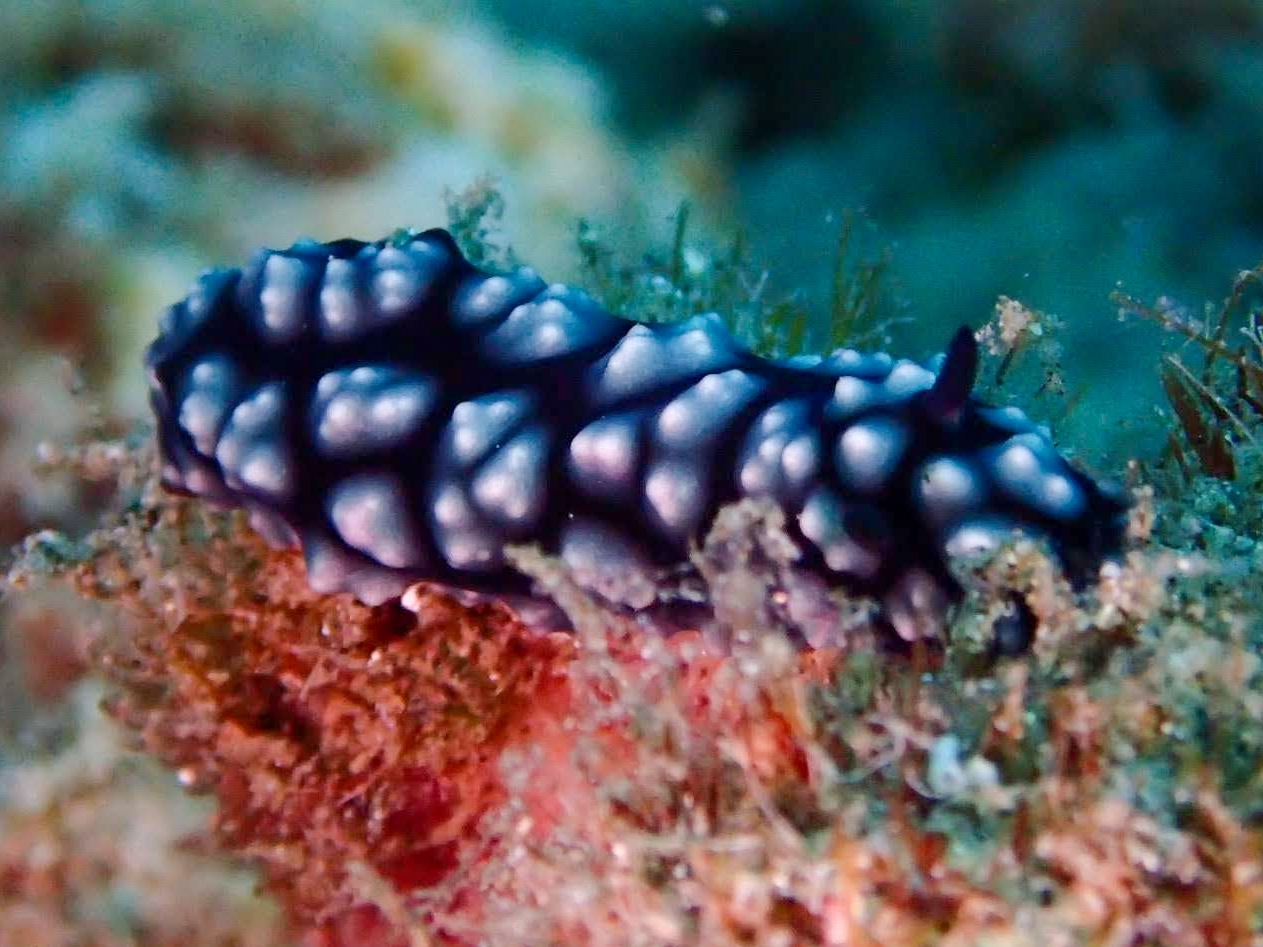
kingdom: Animalia
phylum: Mollusca
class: Gastropoda
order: Nudibranchia
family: Phyllidiidae
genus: Phyllidiella
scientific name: Phyllidiella pustulosa
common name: Pustular phyllidia
